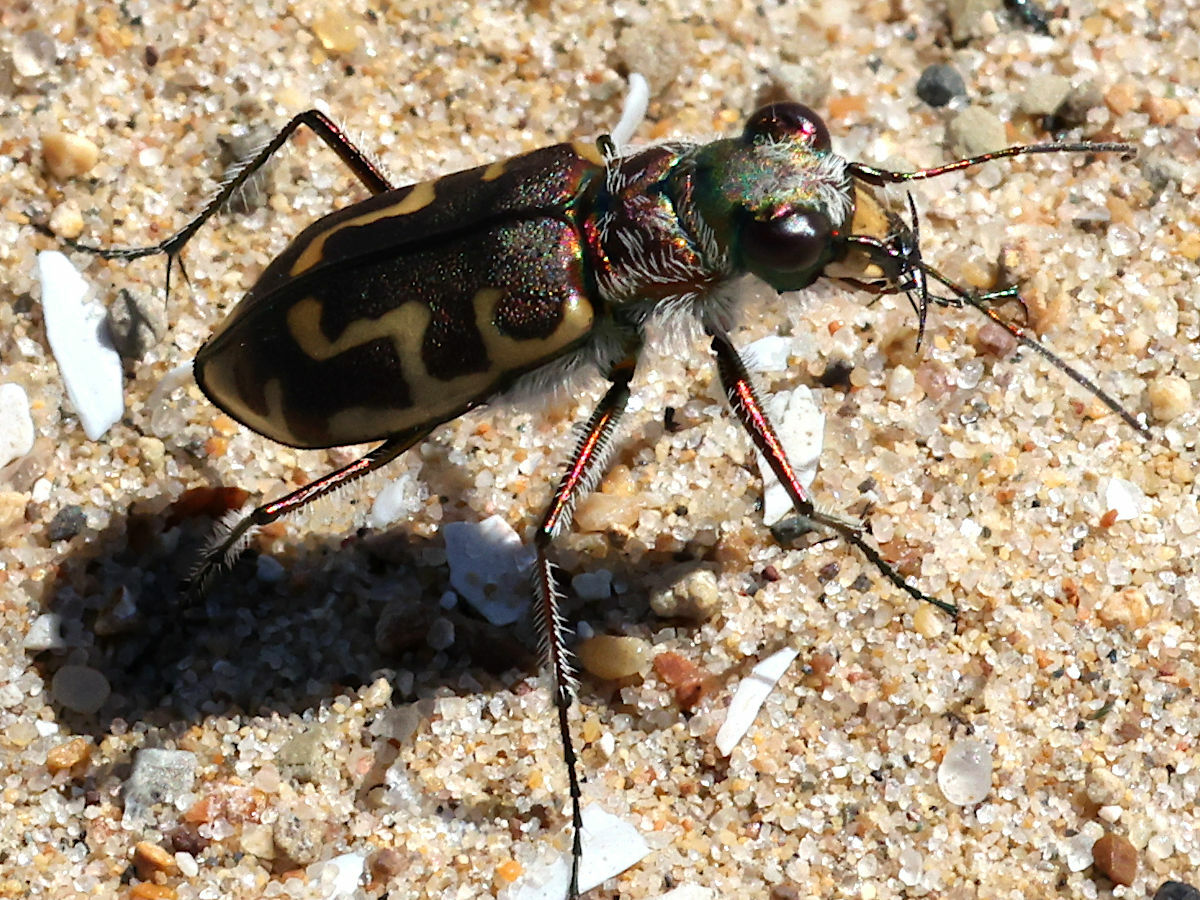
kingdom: Animalia
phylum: Arthropoda
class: Insecta
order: Coleoptera
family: Carabidae
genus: Cicindela
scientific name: Cicindela hirticollis
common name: Hairy-necked tiger beetle
